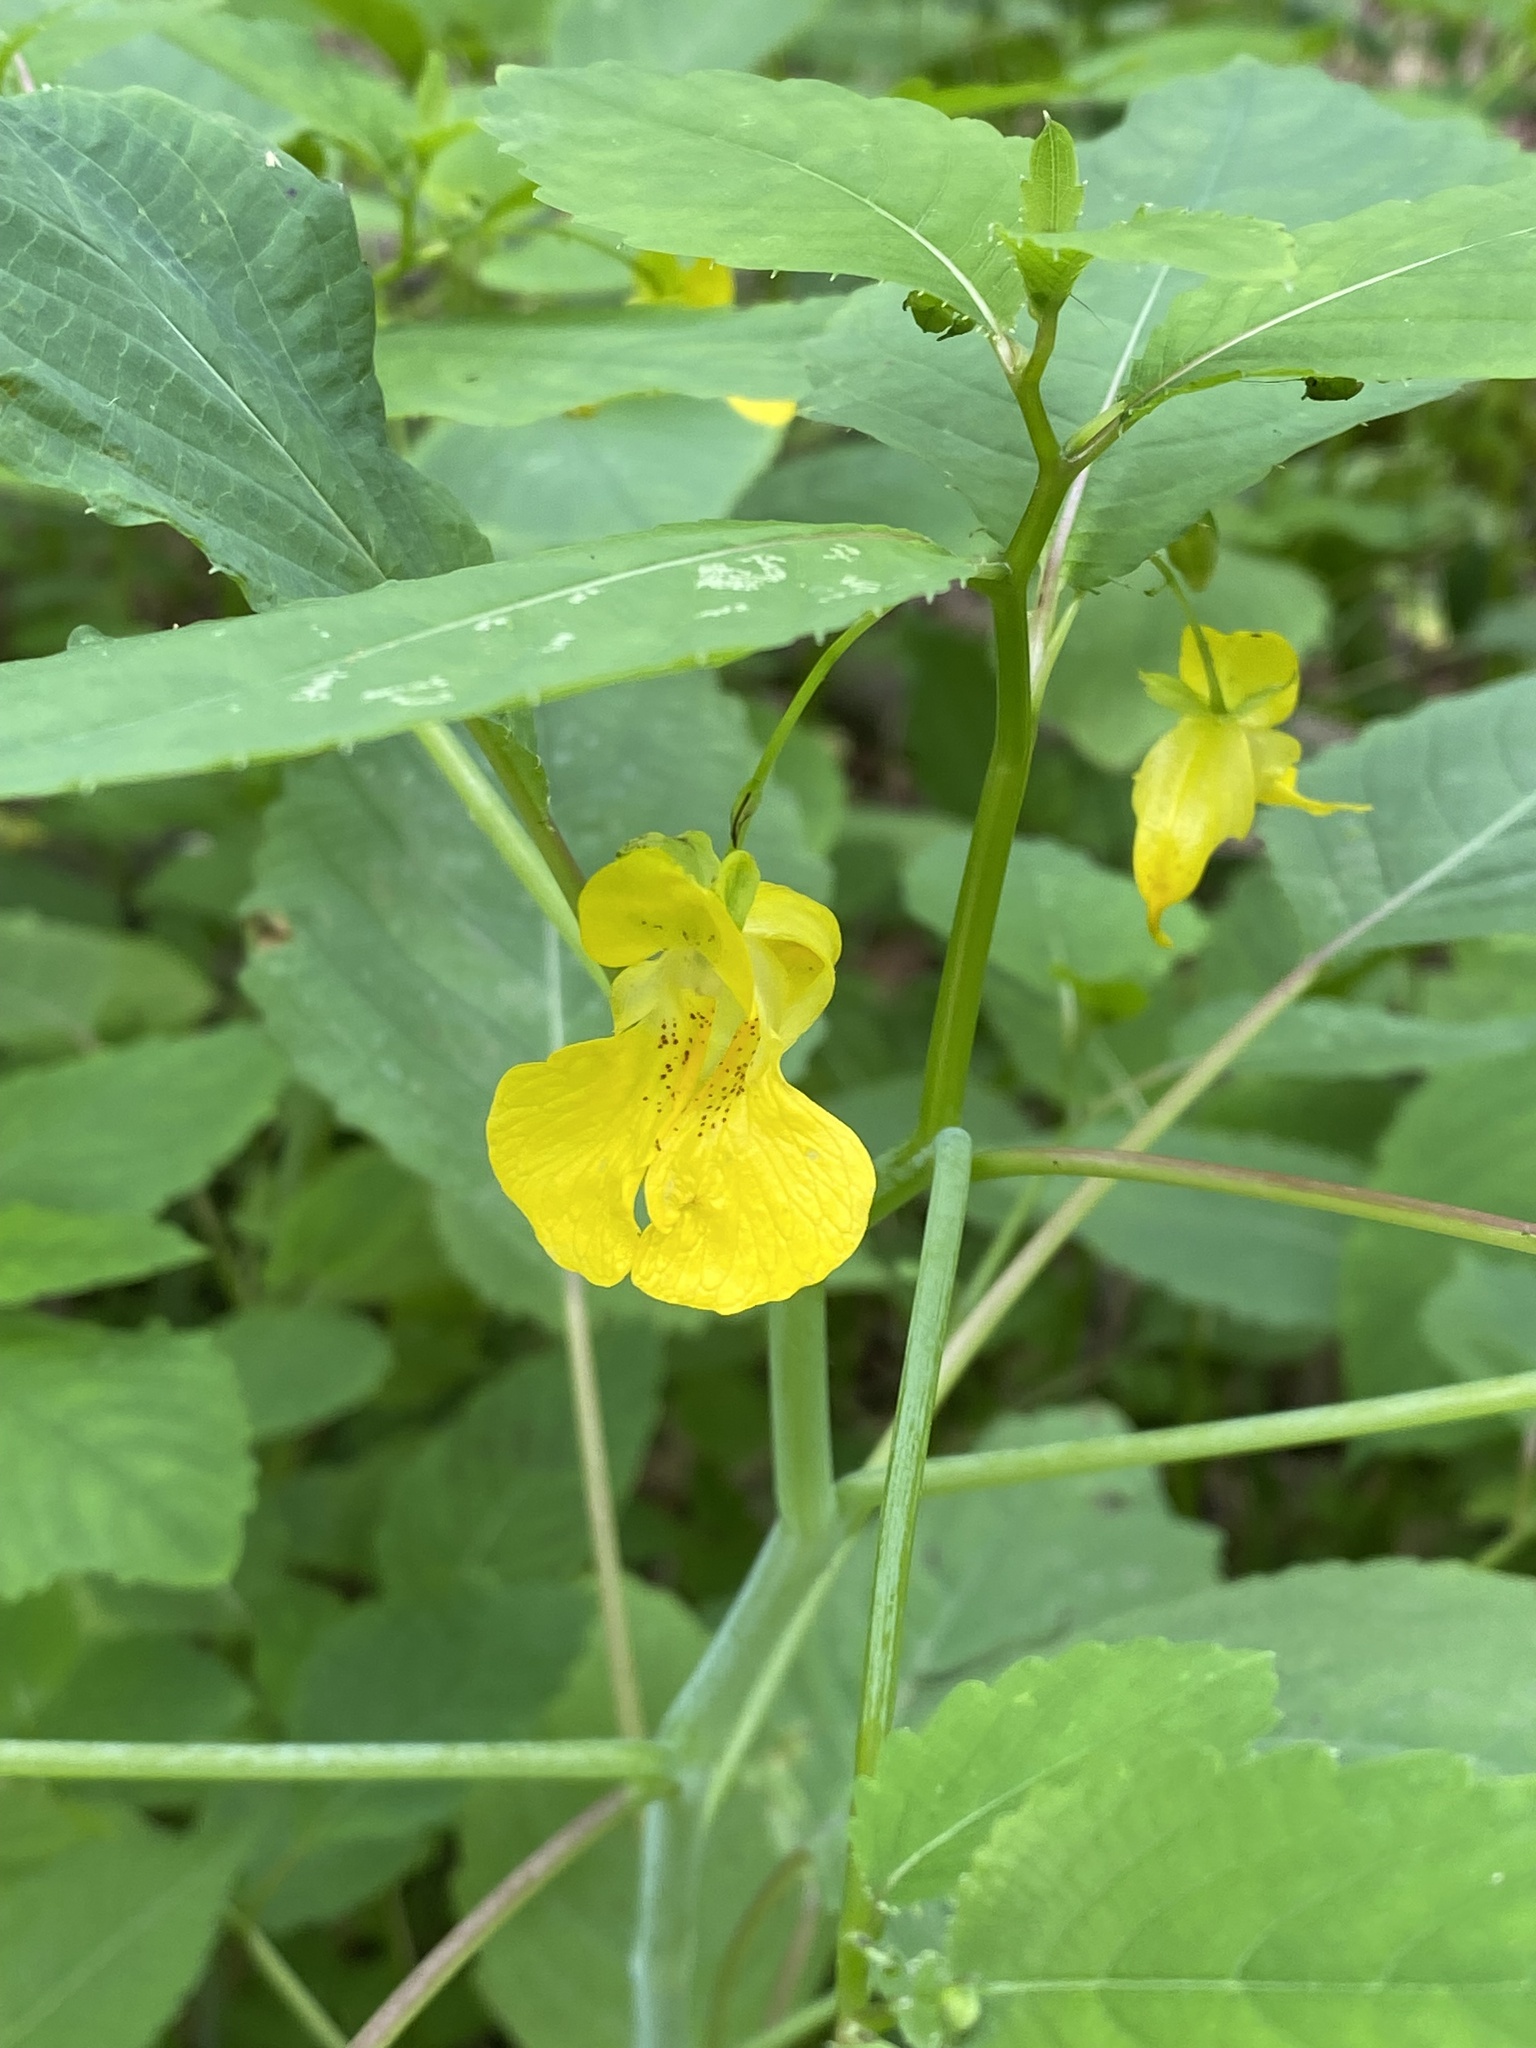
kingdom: Plantae
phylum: Tracheophyta
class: Magnoliopsida
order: Ericales
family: Balsaminaceae
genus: Impatiens
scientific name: Impatiens pallida
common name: Pale snapweed
